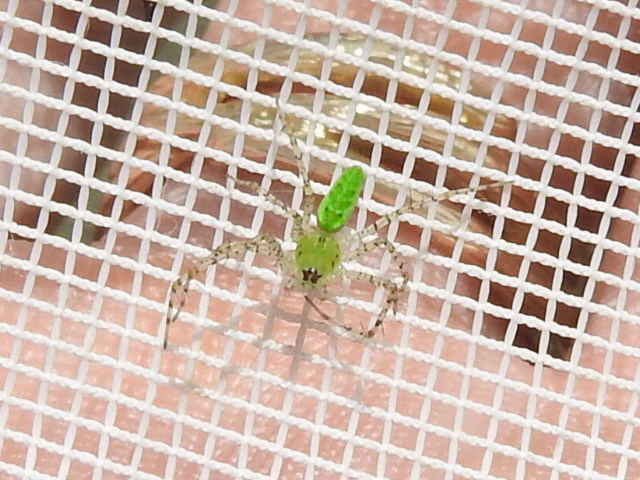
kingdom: Animalia
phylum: Arthropoda
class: Arachnida
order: Araneae
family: Oxyopidae
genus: Peucetia
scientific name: Peucetia viridans
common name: Lynx spiders
